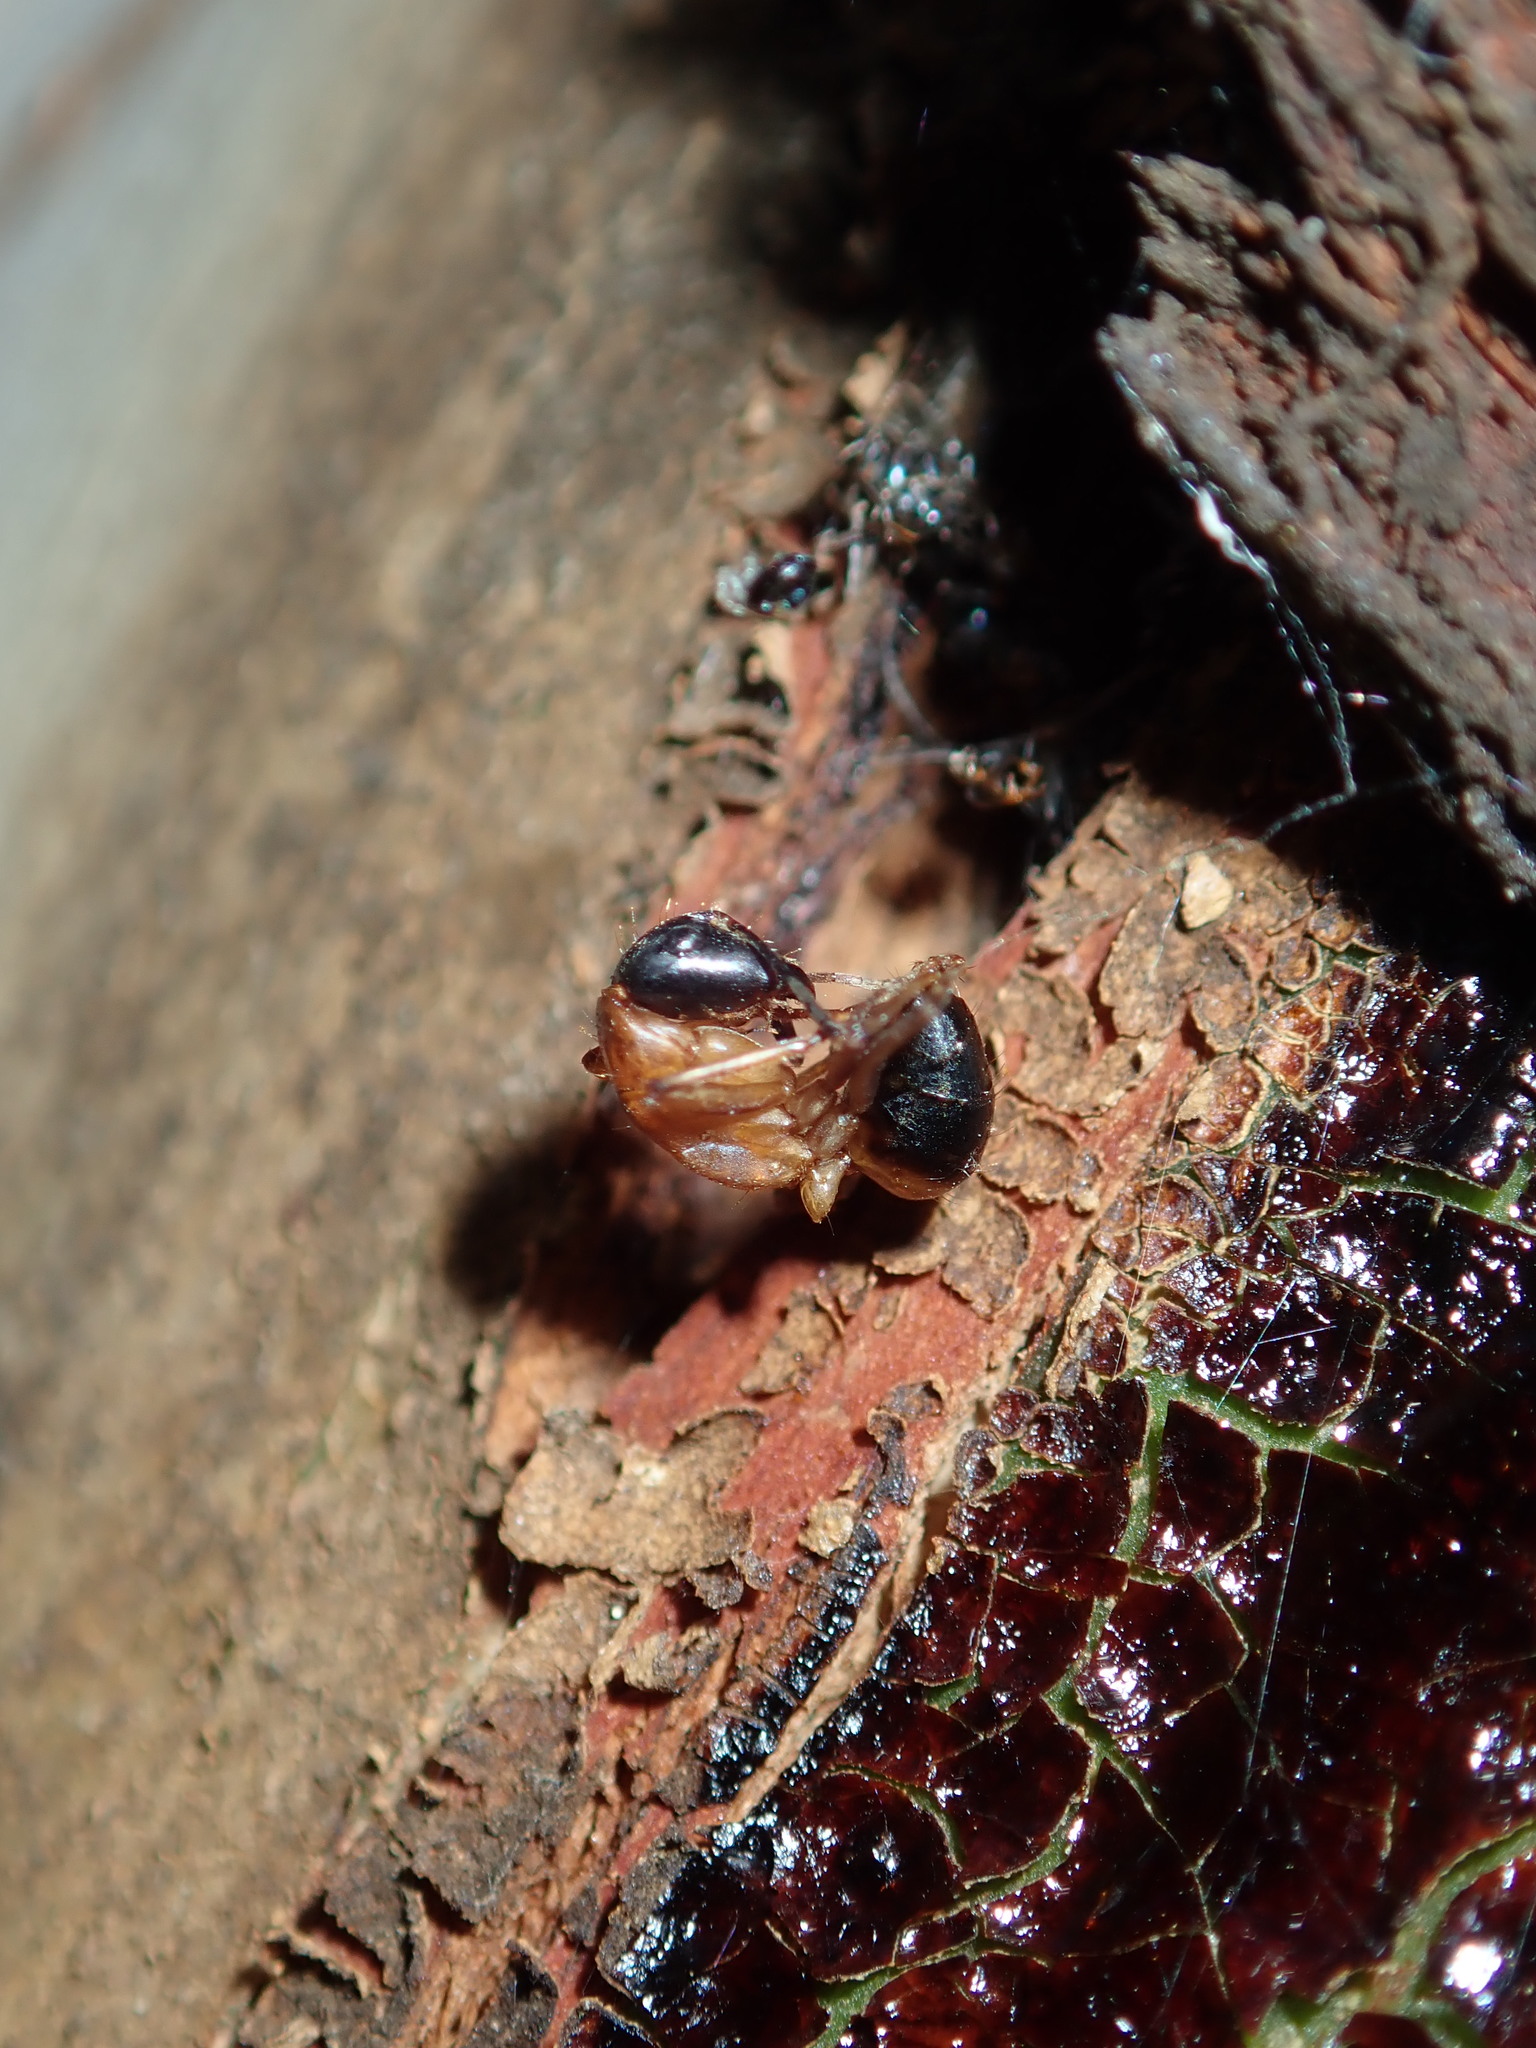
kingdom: Animalia
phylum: Arthropoda
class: Insecta
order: Hymenoptera
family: Formicidae
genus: Camponotus
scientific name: Camponotus consobrinus
